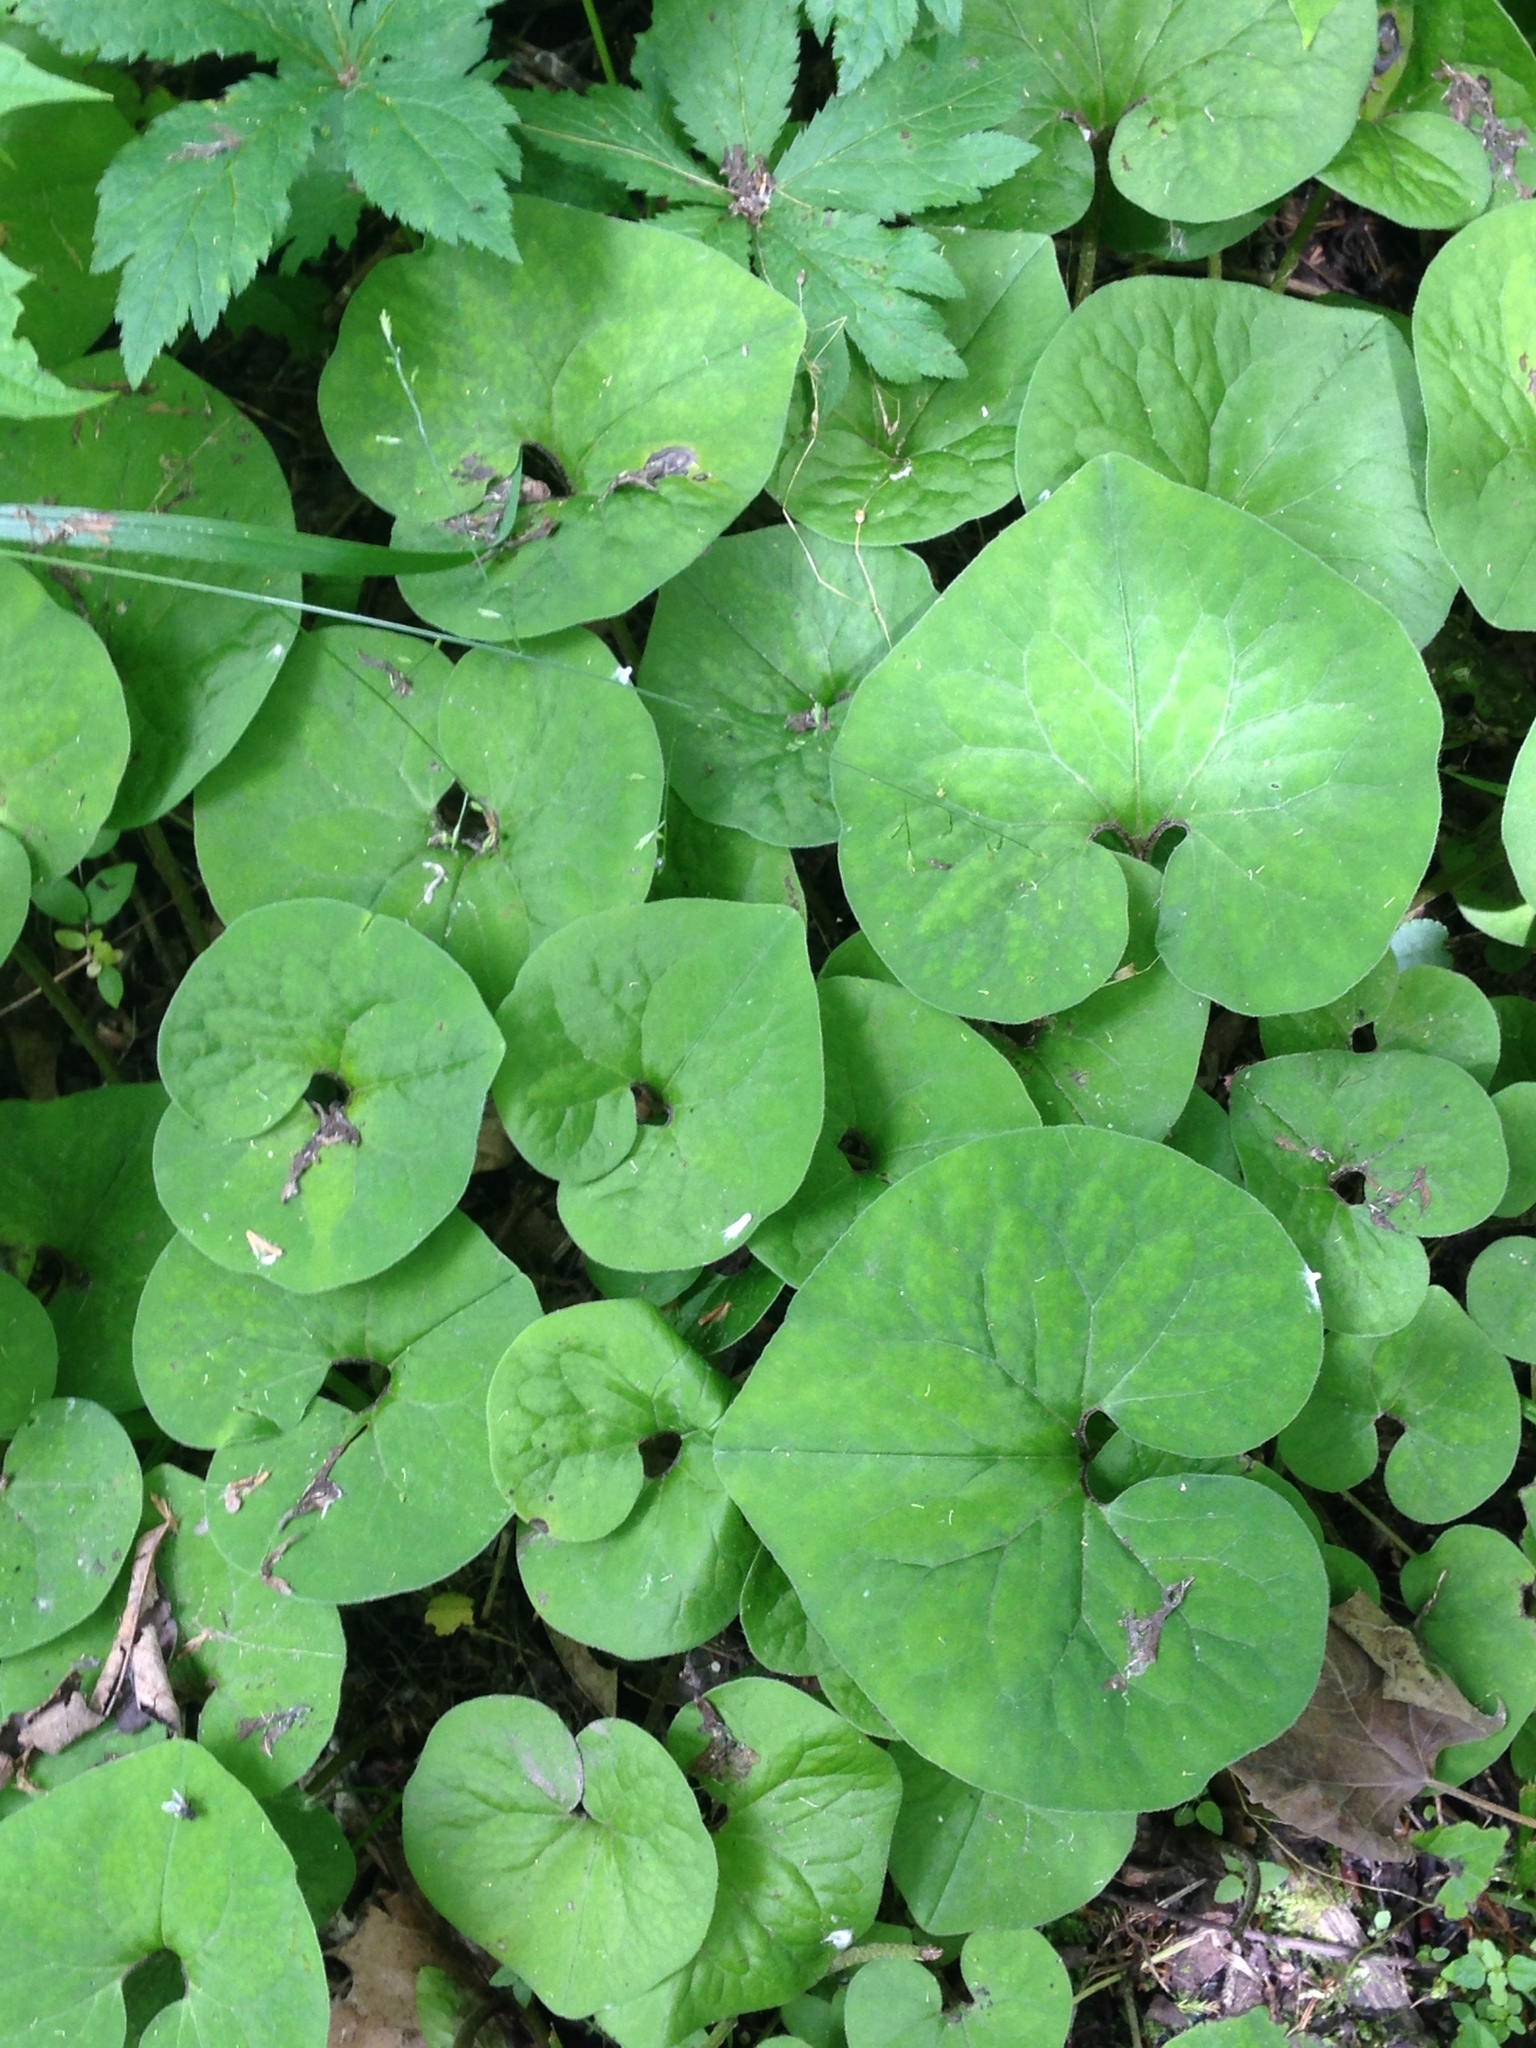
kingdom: Plantae
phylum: Tracheophyta
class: Magnoliopsida
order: Piperales
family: Aristolochiaceae
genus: Asarum
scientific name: Asarum canadense
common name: Wild ginger
